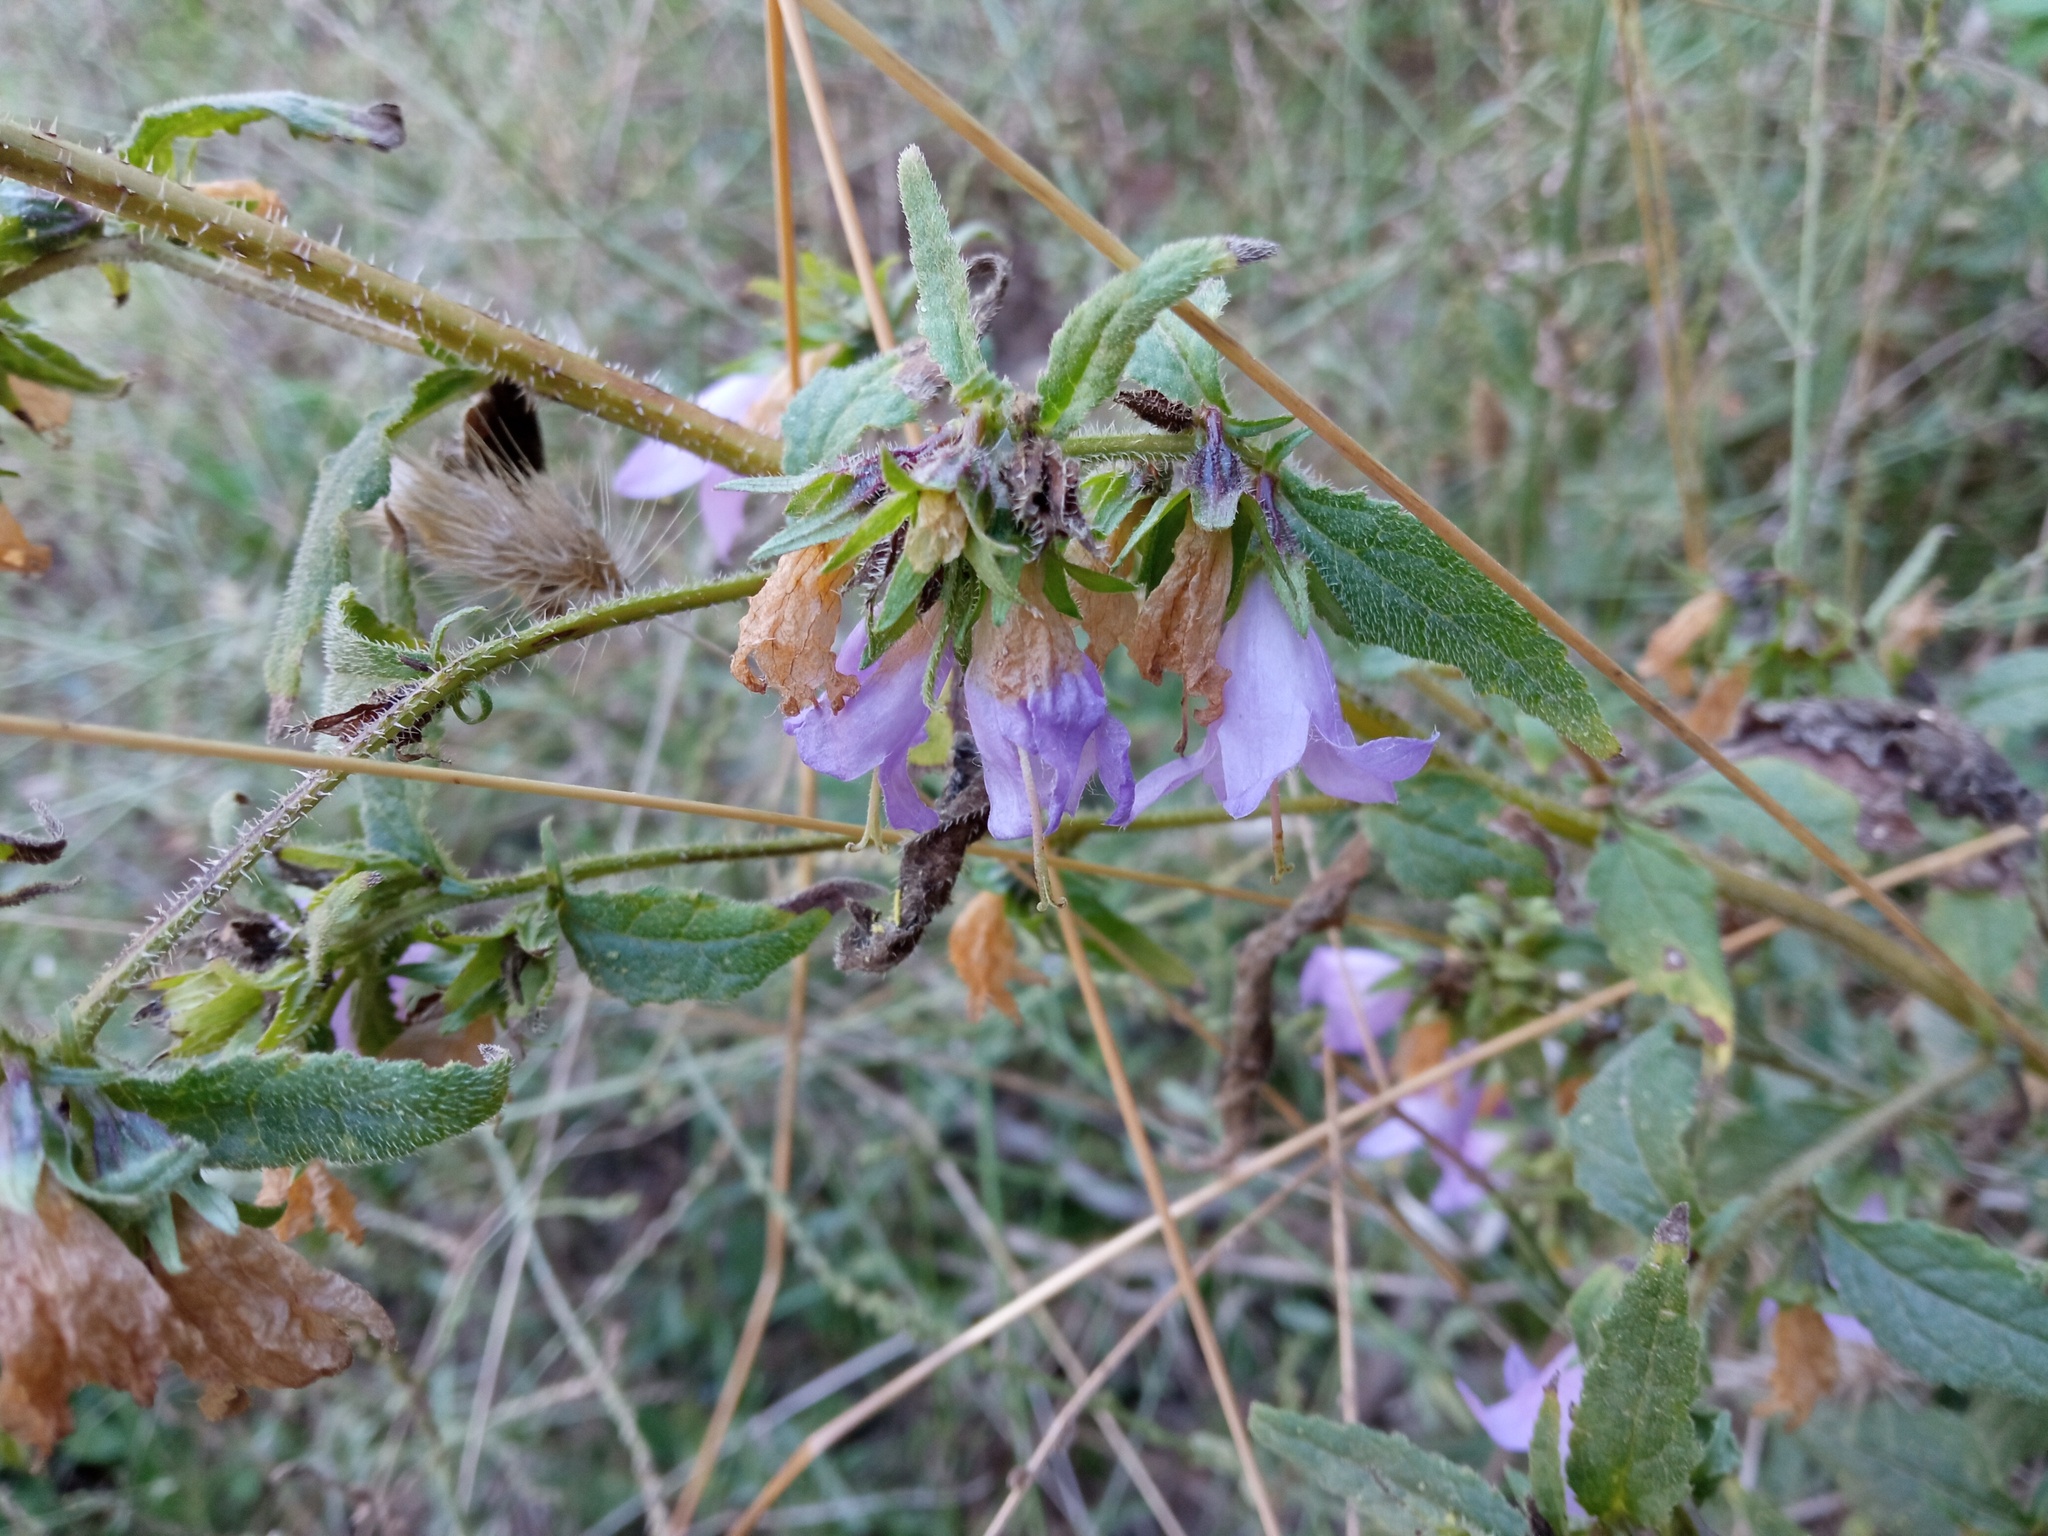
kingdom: Plantae
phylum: Tracheophyta
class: Magnoliopsida
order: Asterales
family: Campanulaceae
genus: Campanula
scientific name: Campanula trachelium
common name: Nettle-leaved bellflower
